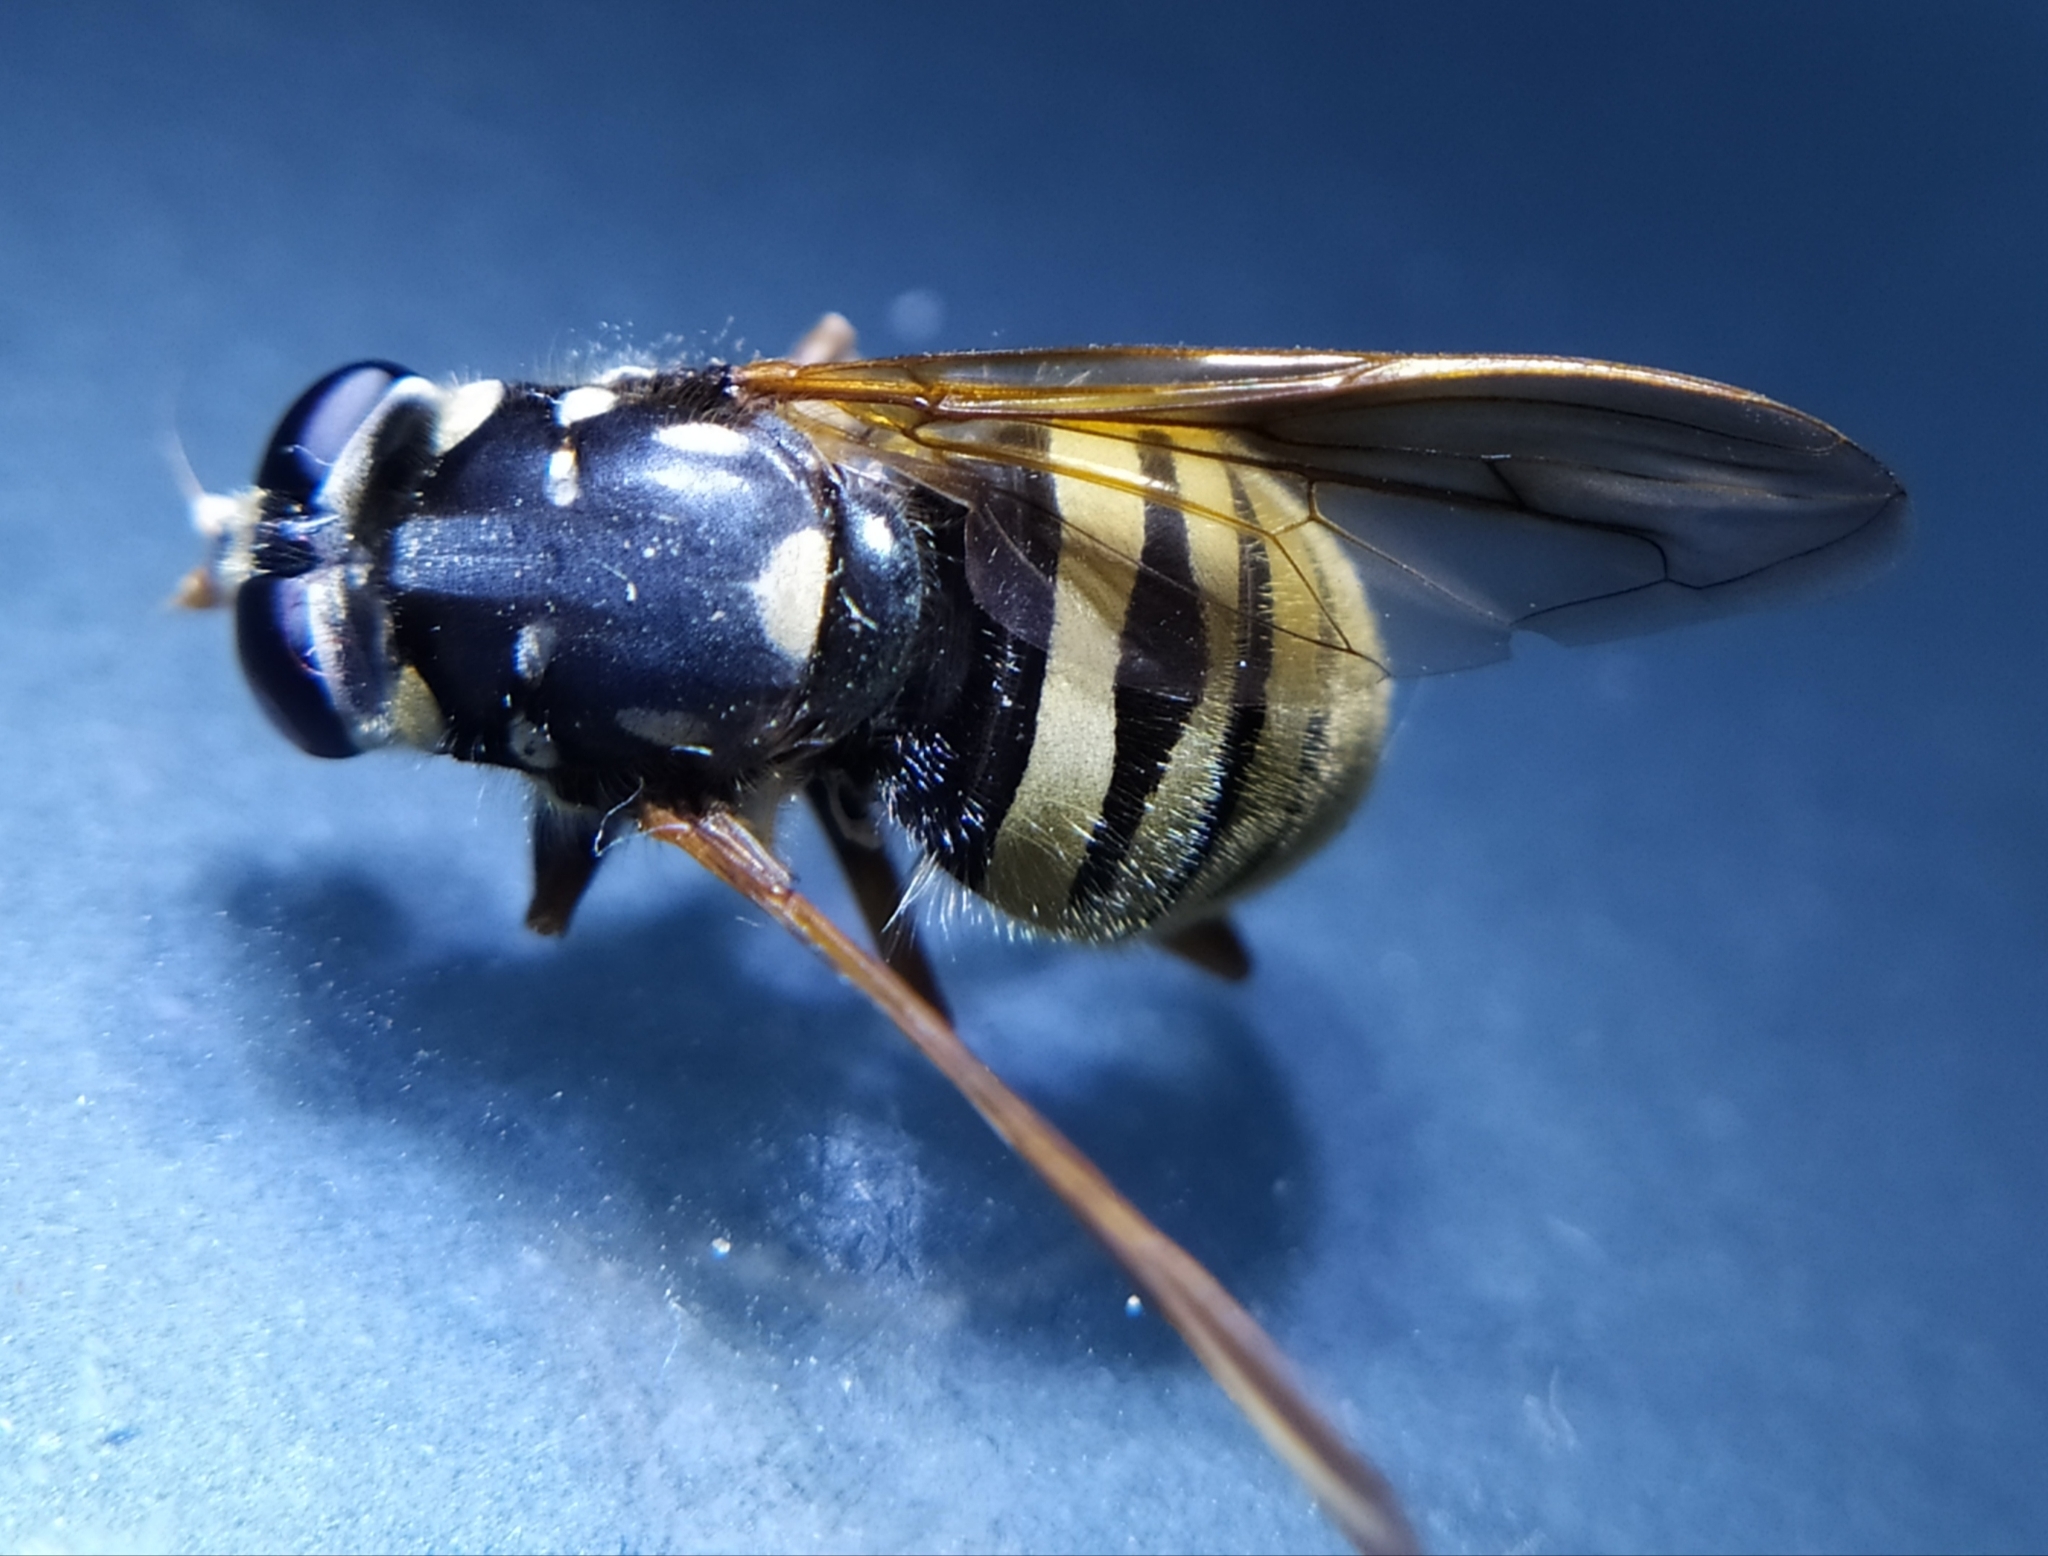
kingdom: Animalia
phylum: Arthropoda
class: Insecta
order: Diptera
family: Syrphidae
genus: Temnostoma
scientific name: Temnostoma meridionale
